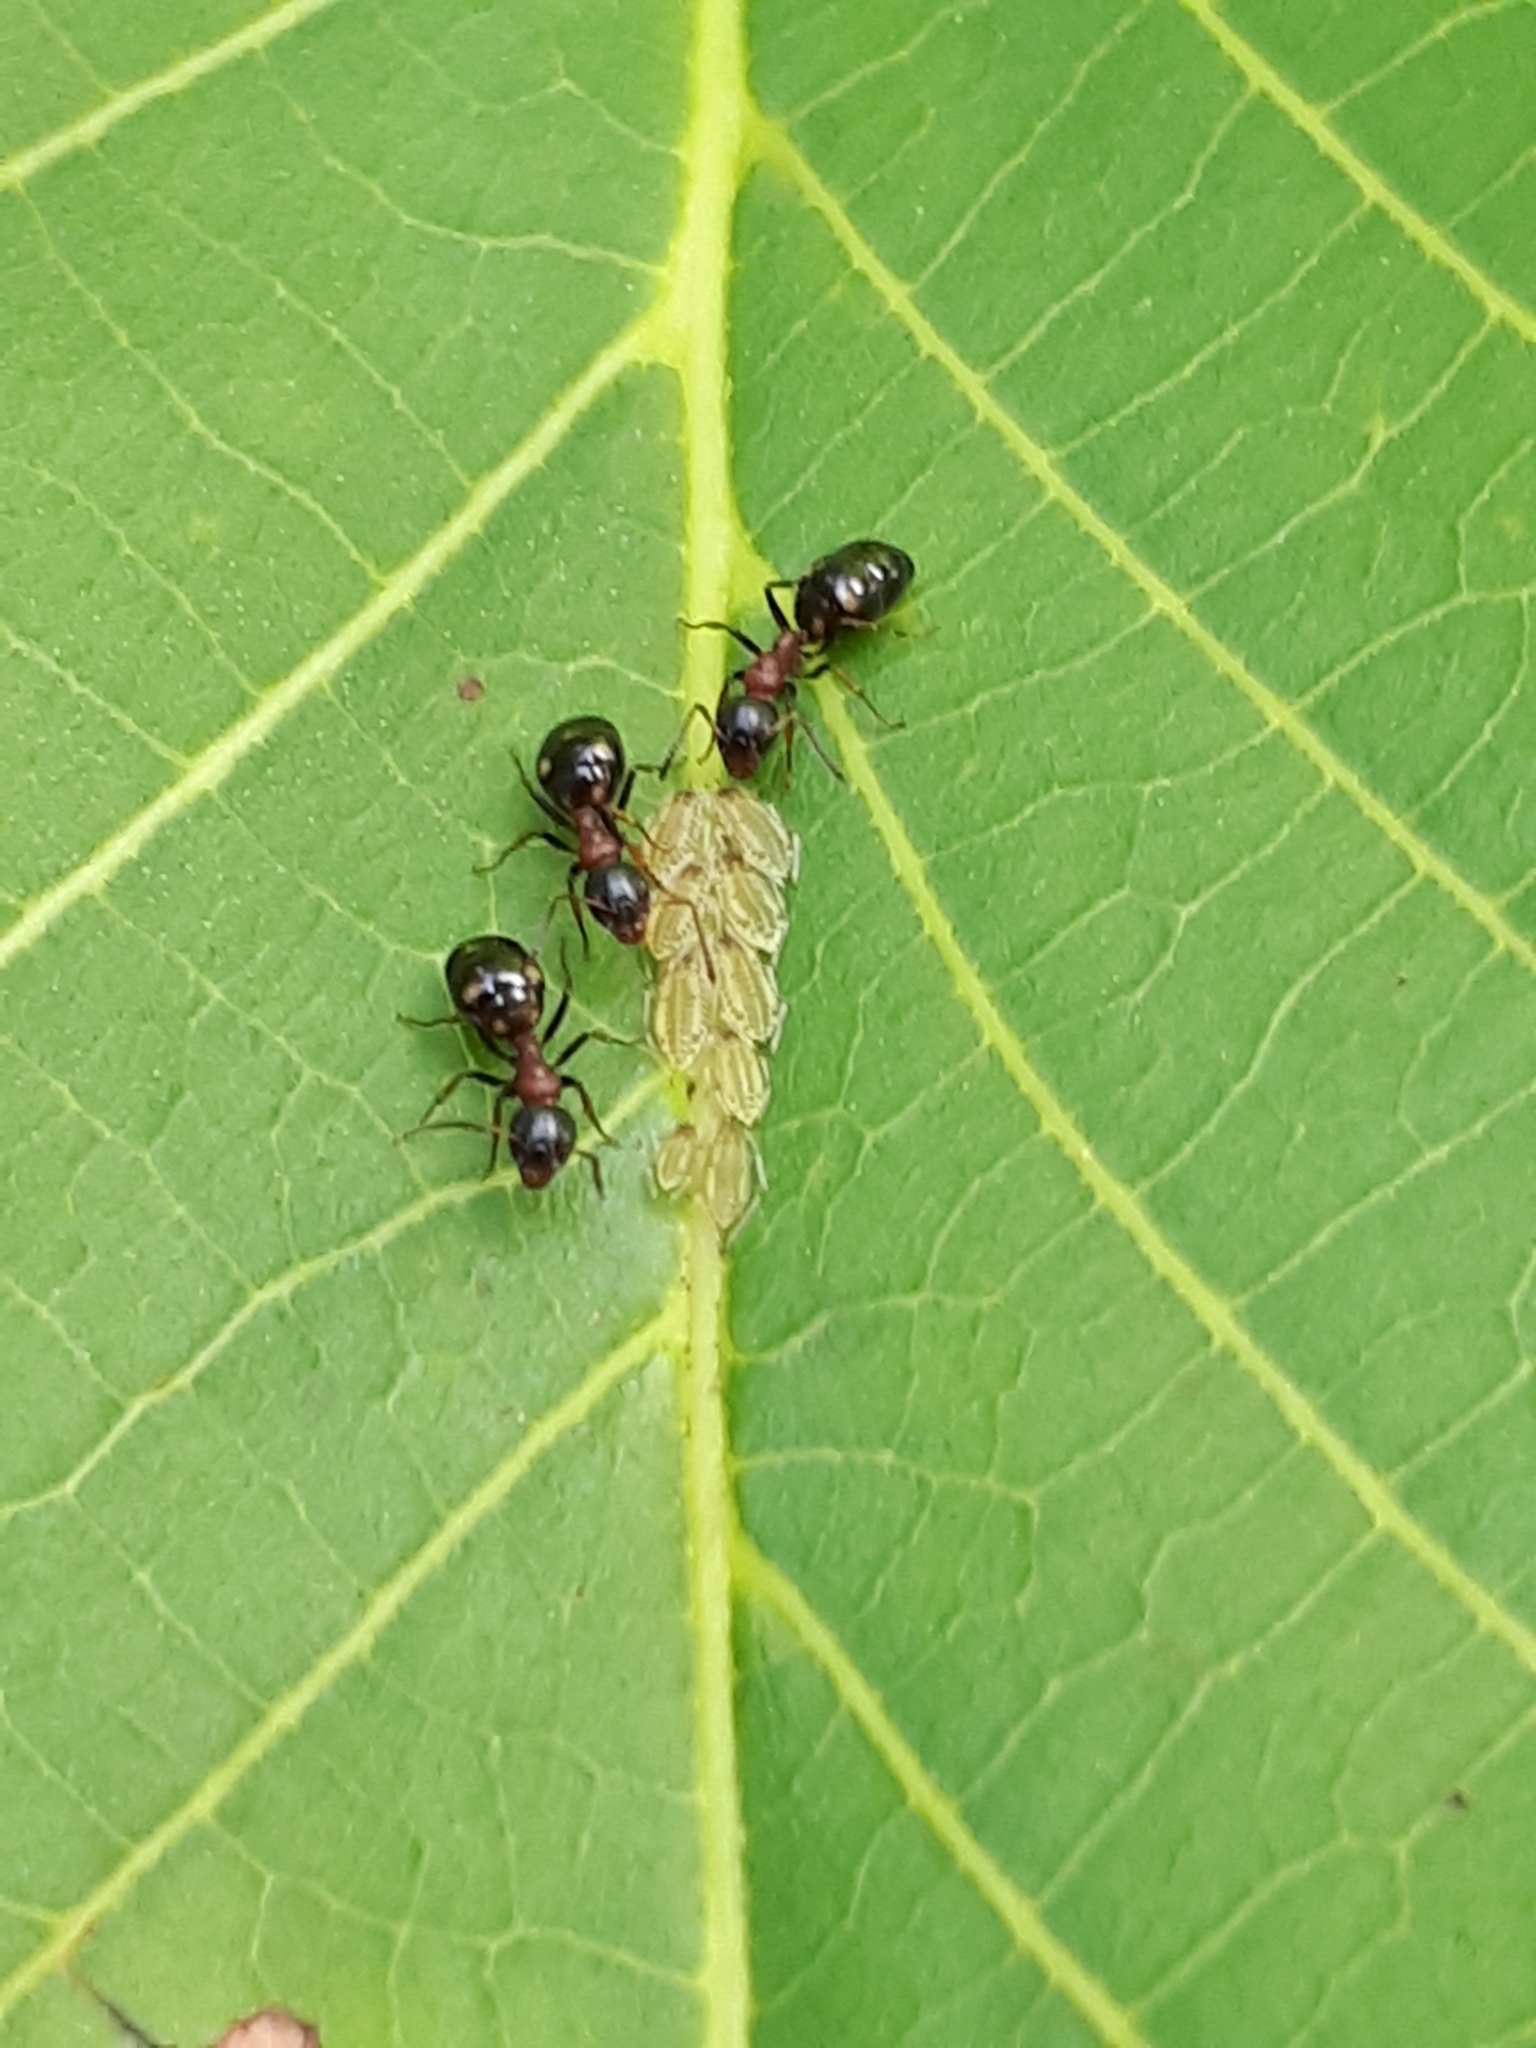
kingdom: Animalia
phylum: Arthropoda
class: Insecta
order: Hemiptera
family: Aphididae
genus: Panaphis
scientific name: Panaphis juglandis
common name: Large walnut aphid
